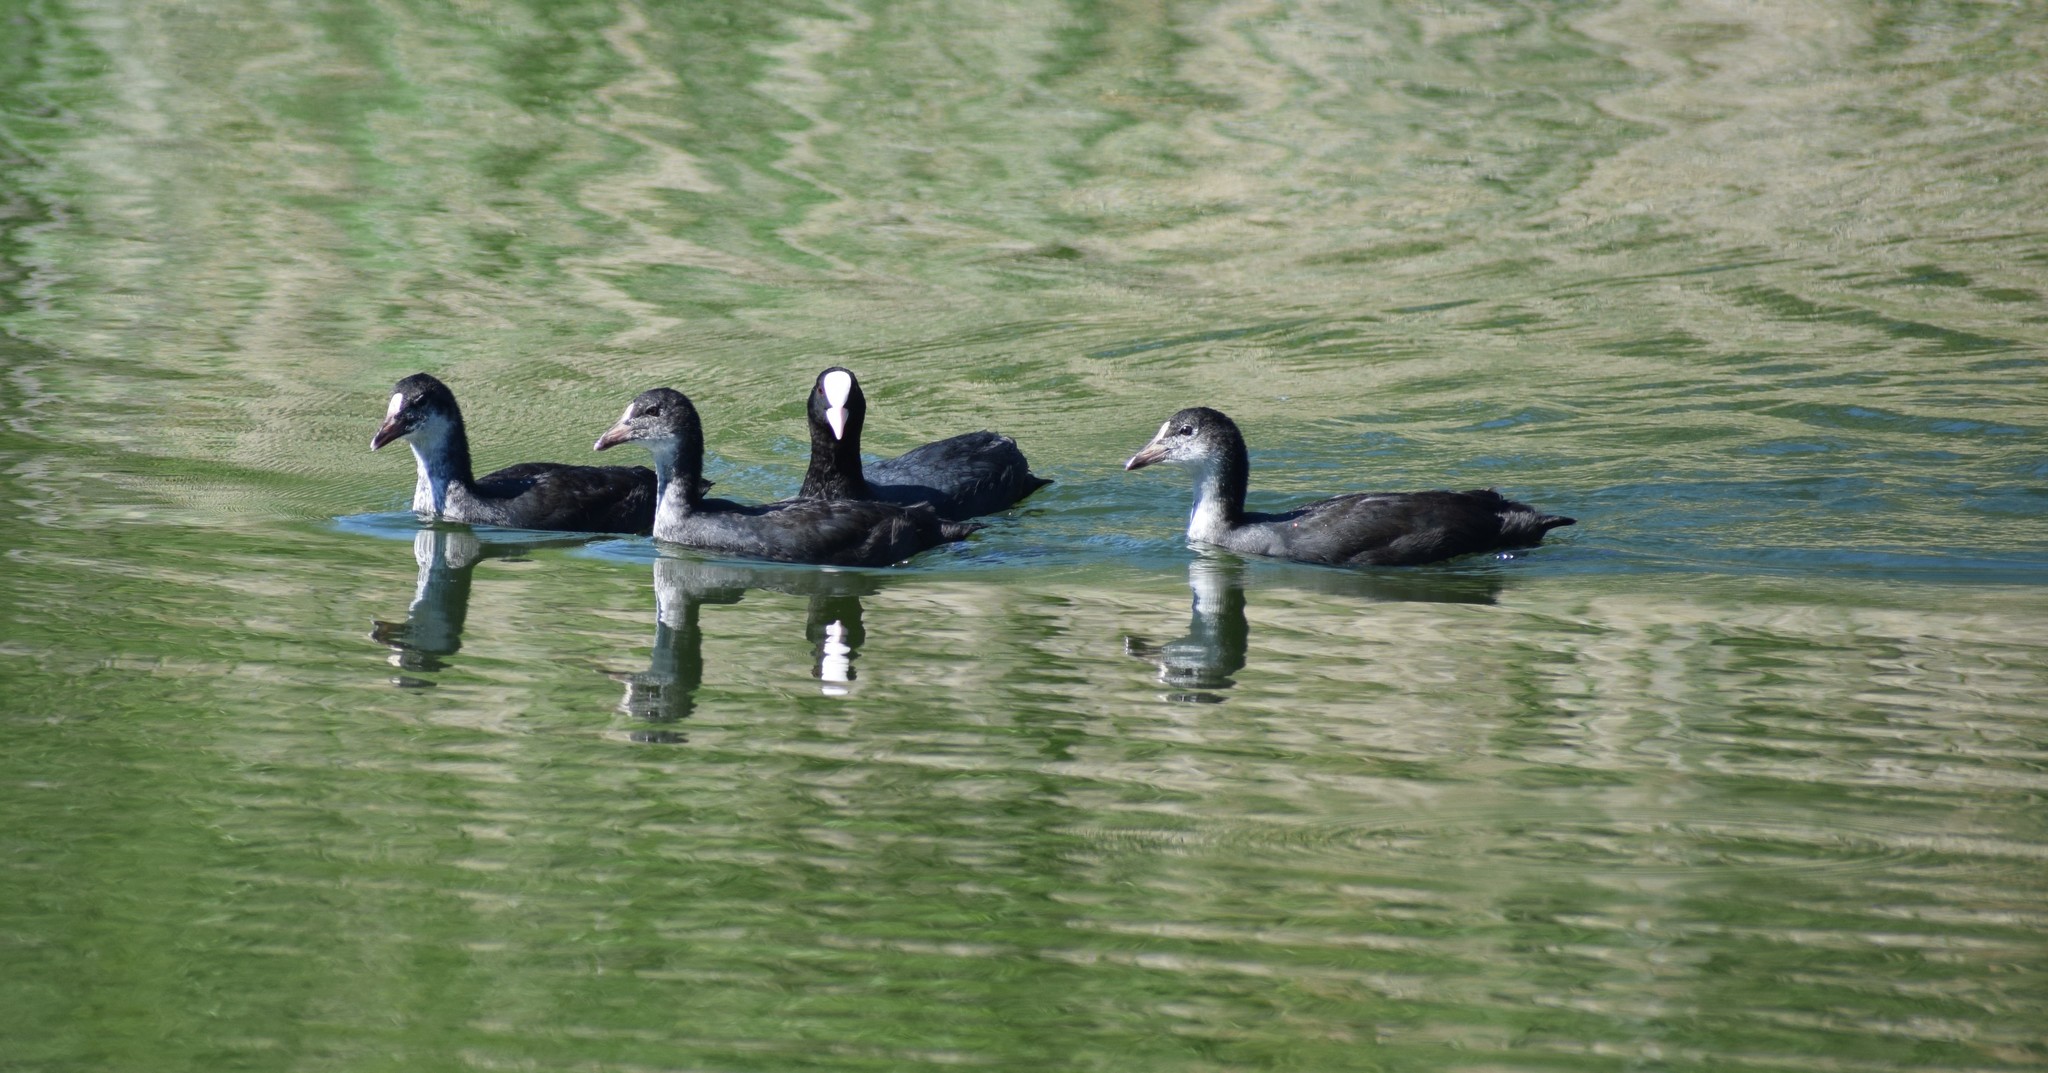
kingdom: Animalia
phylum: Chordata
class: Aves
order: Gruiformes
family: Rallidae
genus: Fulica
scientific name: Fulica atra
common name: Eurasian coot
